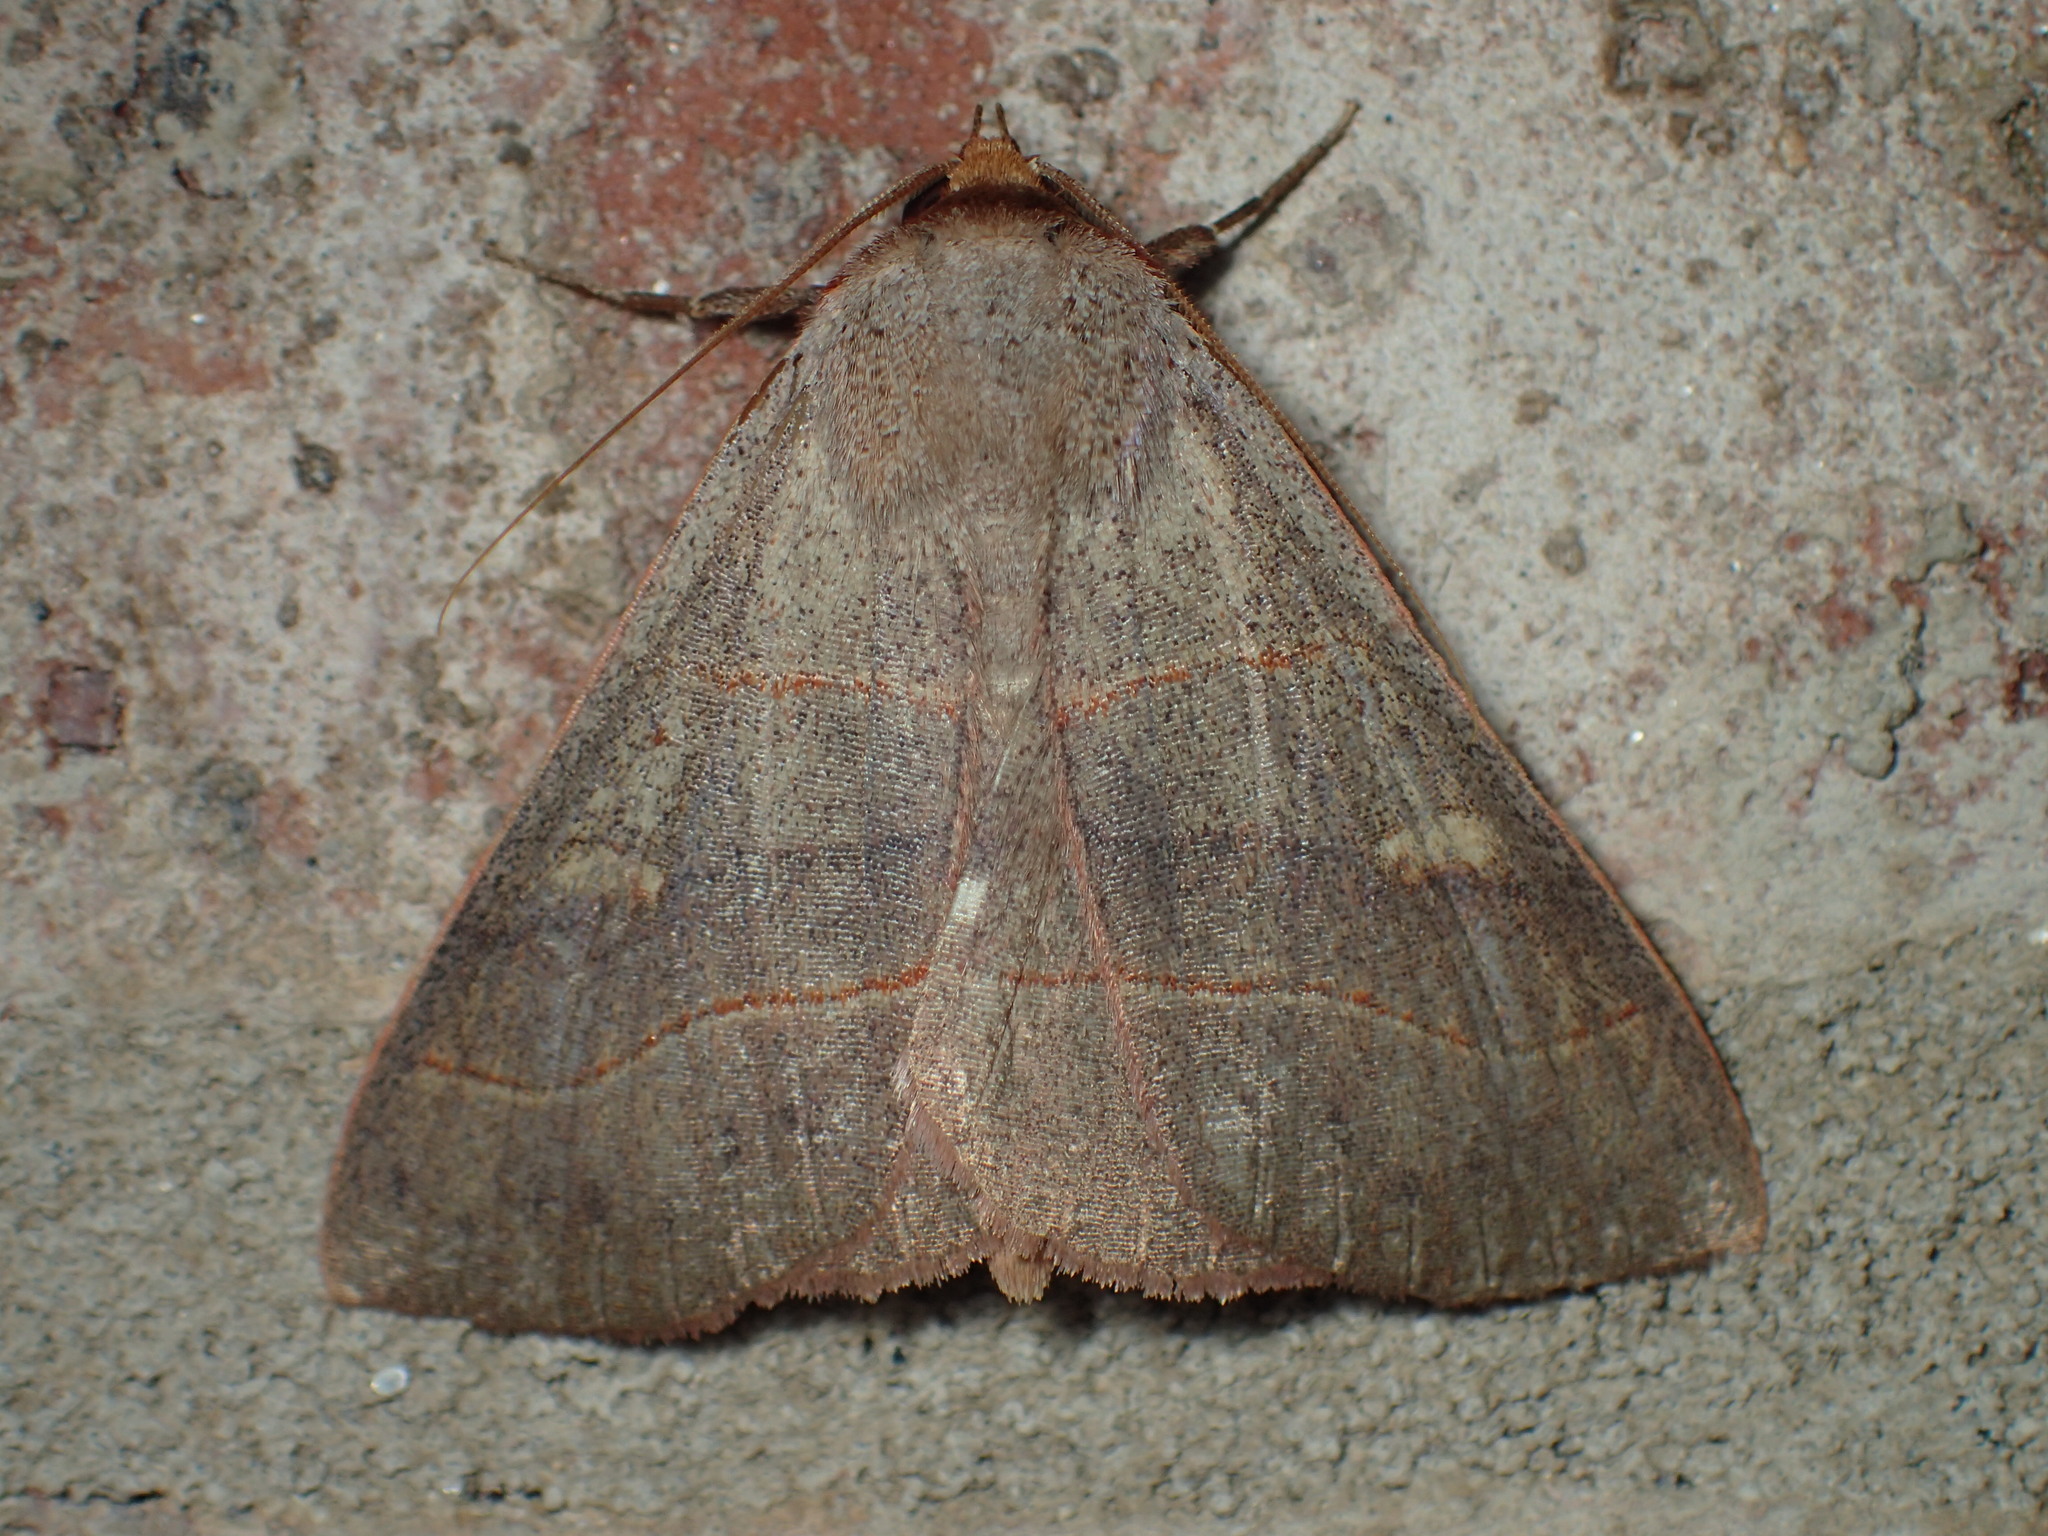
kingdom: Animalia
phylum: Arthropoda
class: Insecta
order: Lepidoptera
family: Erebidae
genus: Panopoda
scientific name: Panopoda rufimargo
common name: Red-lined panopoda moth
